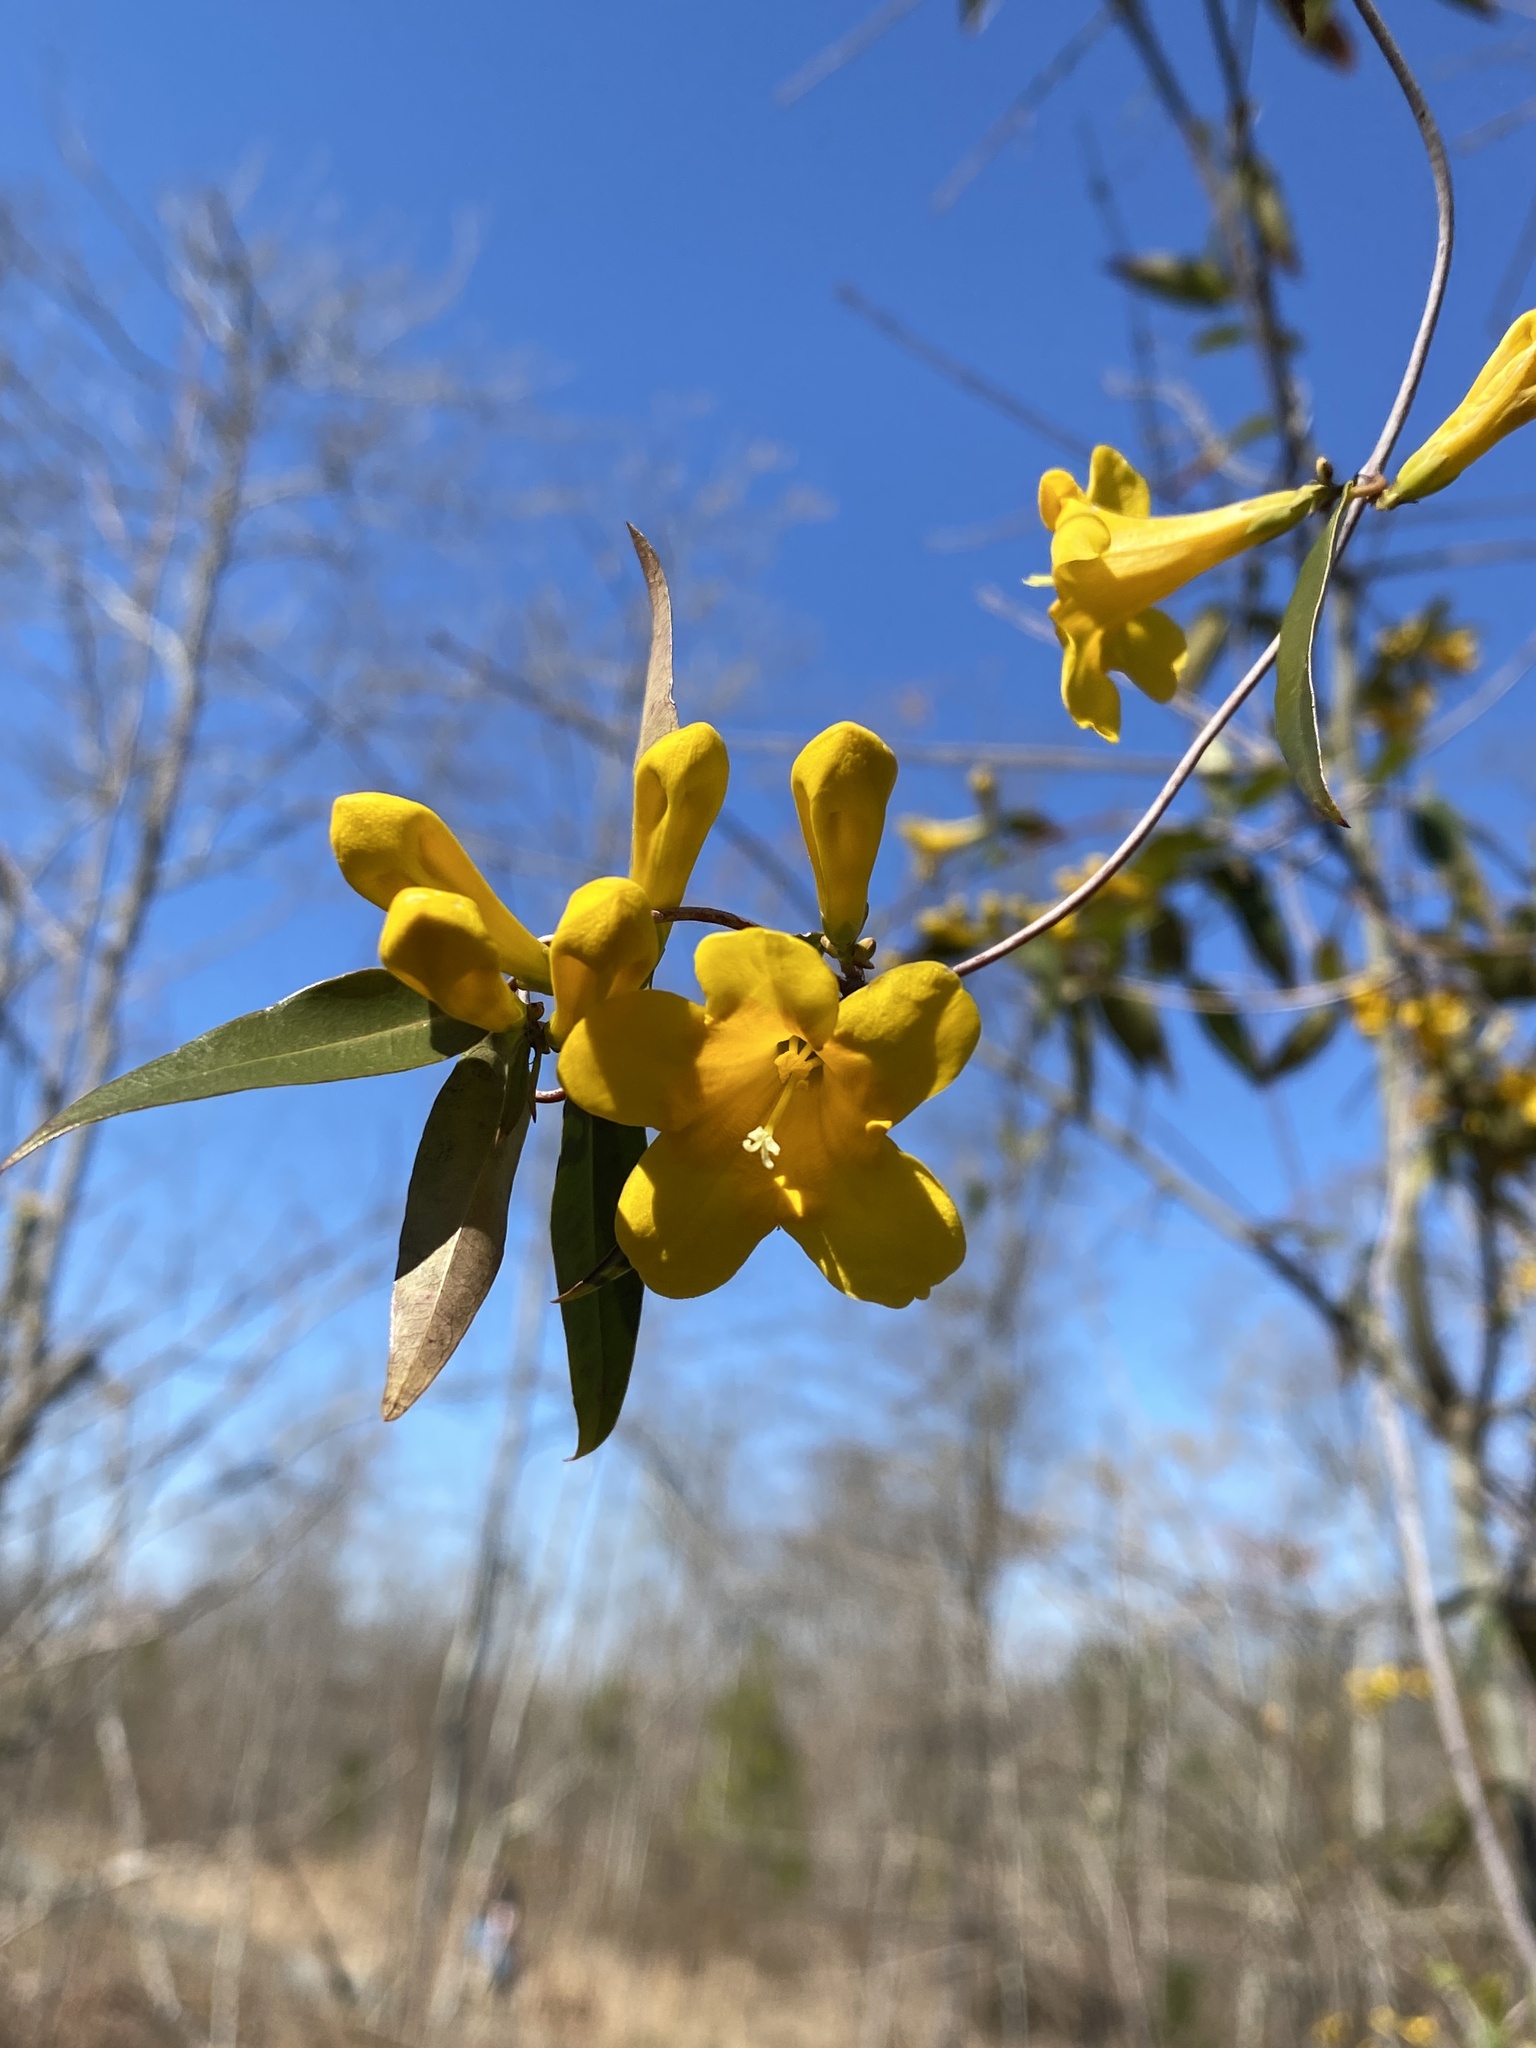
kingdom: Plantae
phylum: Tracheophyta
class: Magnoliopsida
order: Gentianales
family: Gelsemiaceae
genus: Gelsemium
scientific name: Gelsemium sempervirens
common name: Carolina-jasmine
